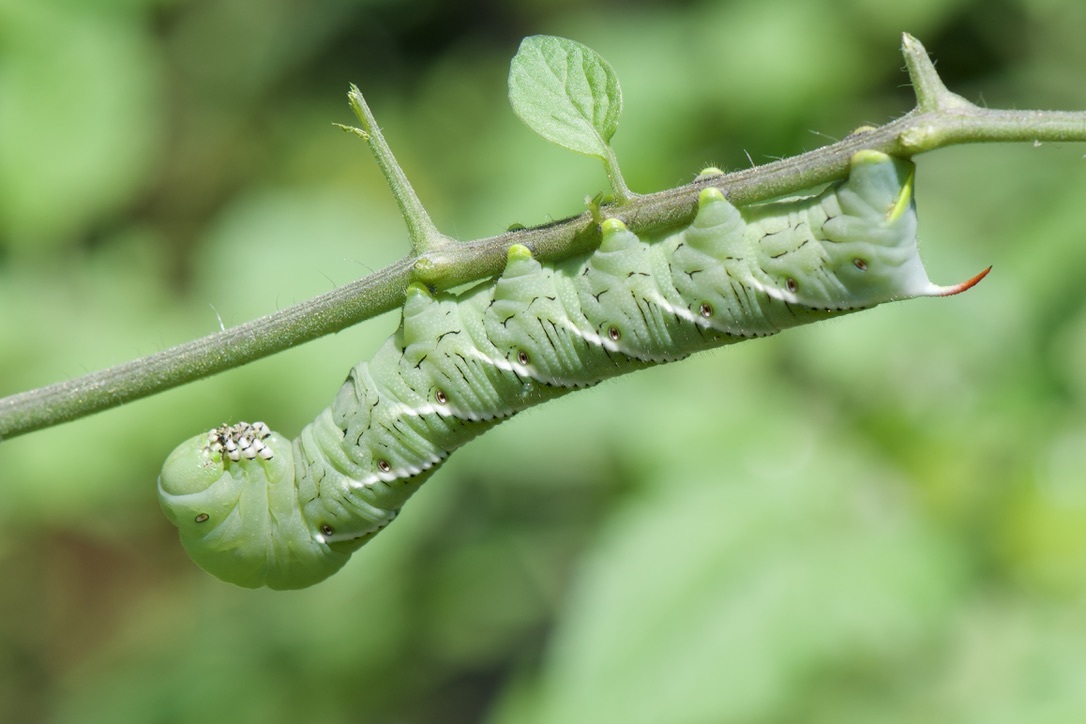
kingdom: Animalia
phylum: Arthropoda
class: Insecta
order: Lepidoptera
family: Sphingidae
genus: Manduca
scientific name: Manduca sexta
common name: Carolina sphinx
